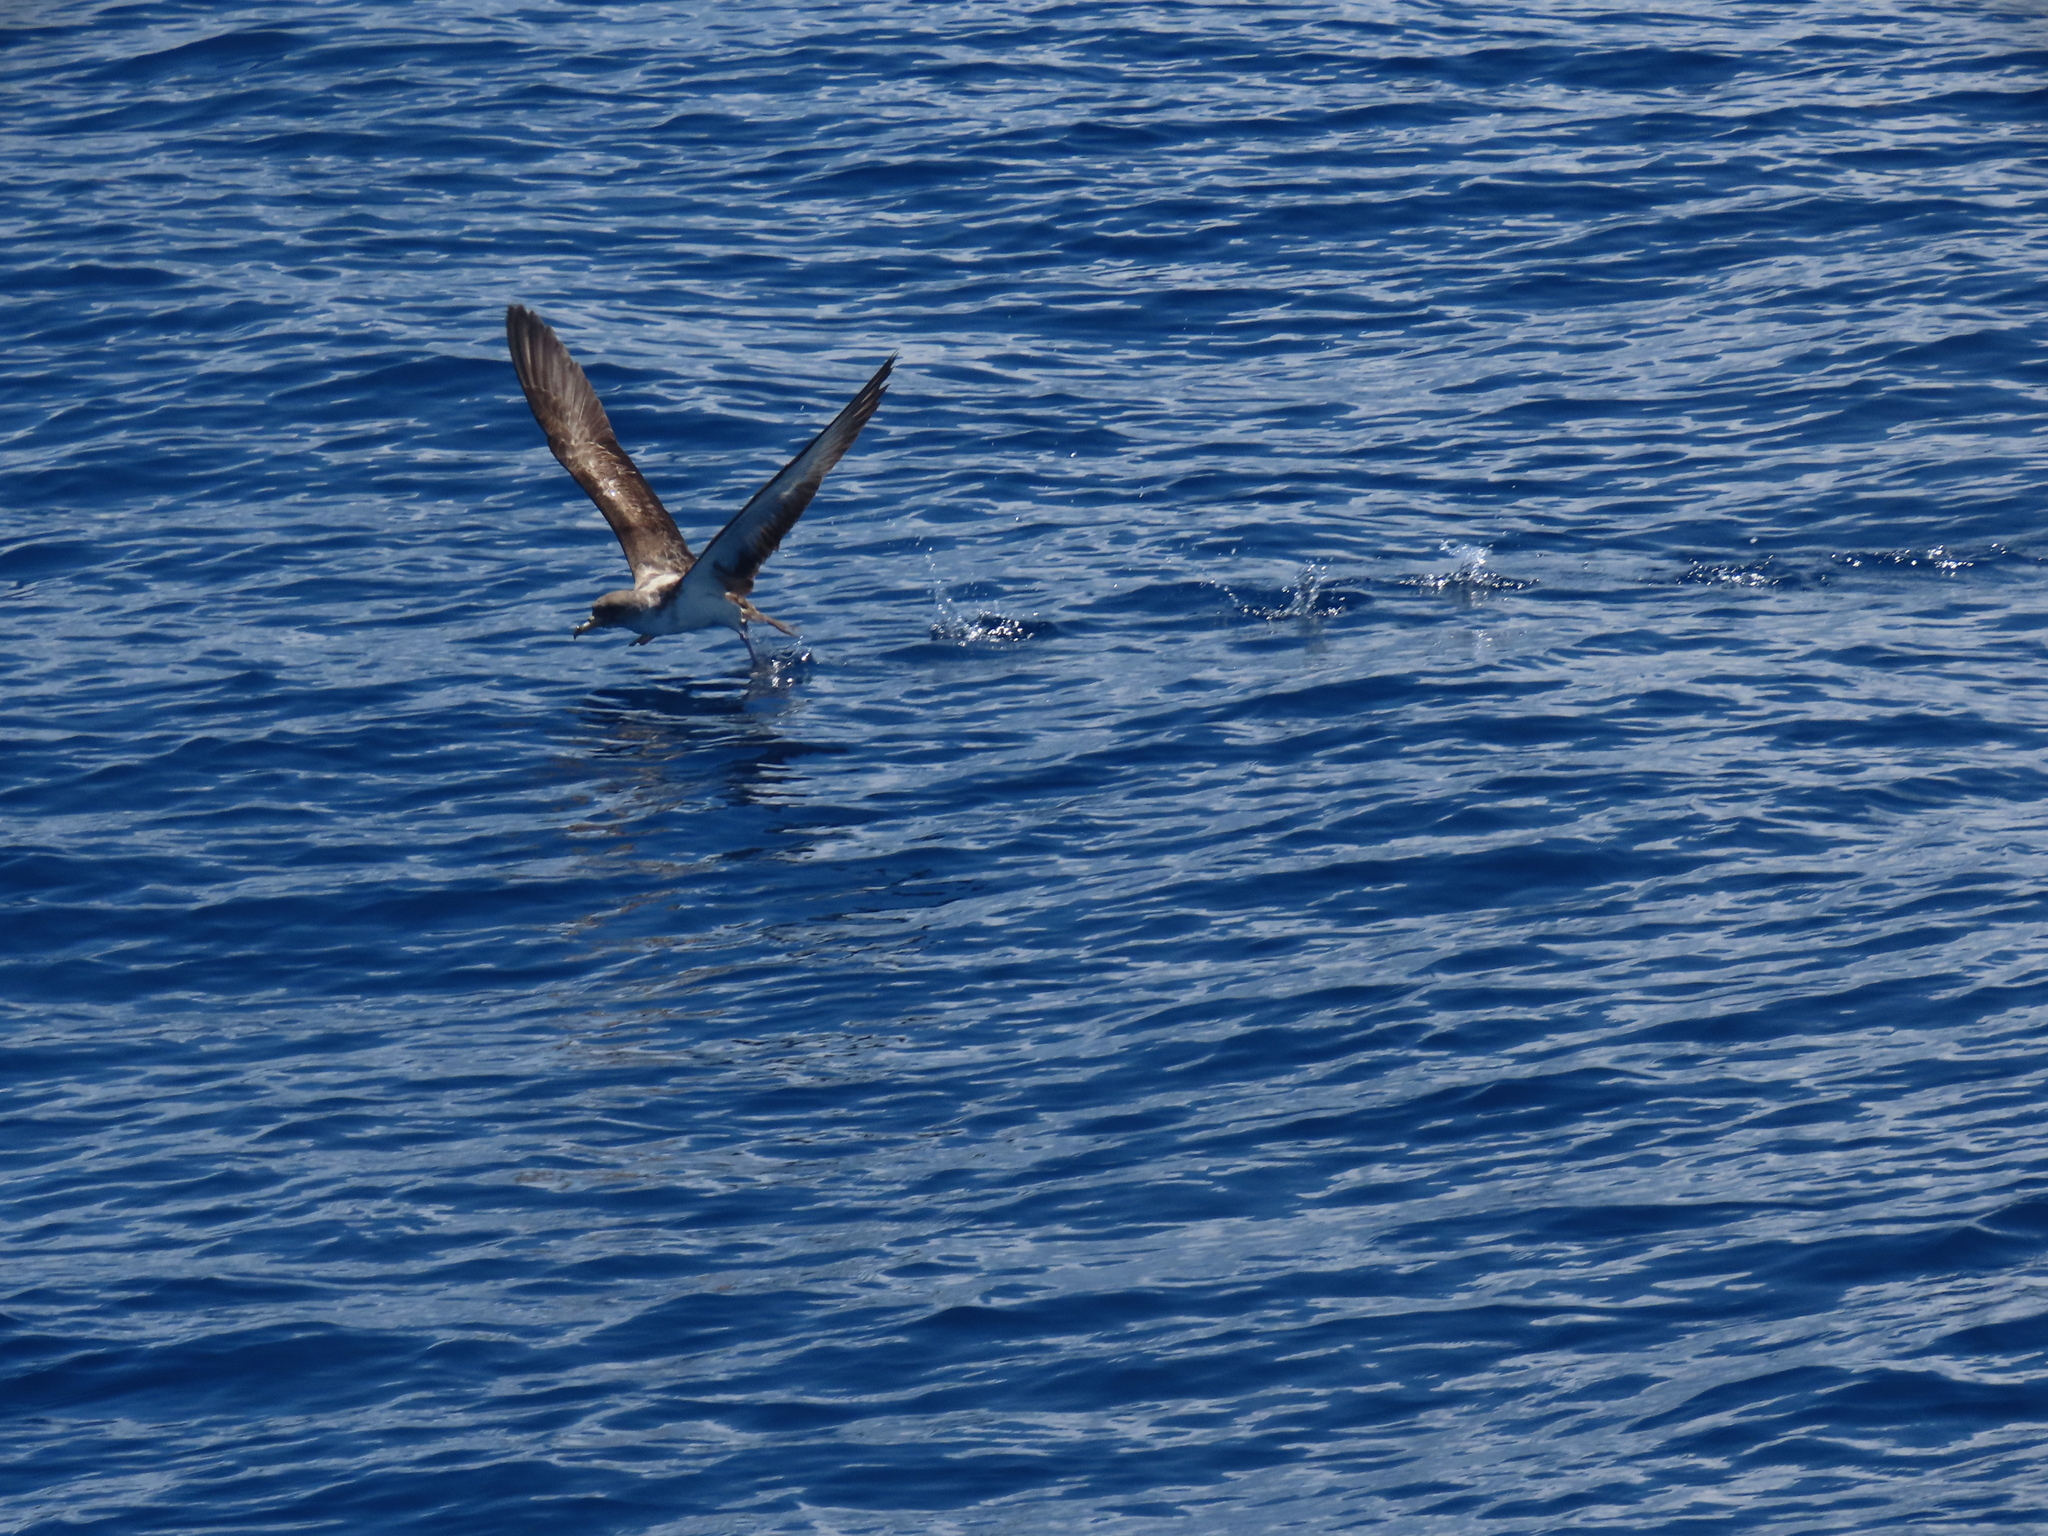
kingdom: Animalia
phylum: Chordata
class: Aves
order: Procellariiformes
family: Procellariidae
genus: Calonectris
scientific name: Calonectris diomedea
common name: Cory's shearwater
